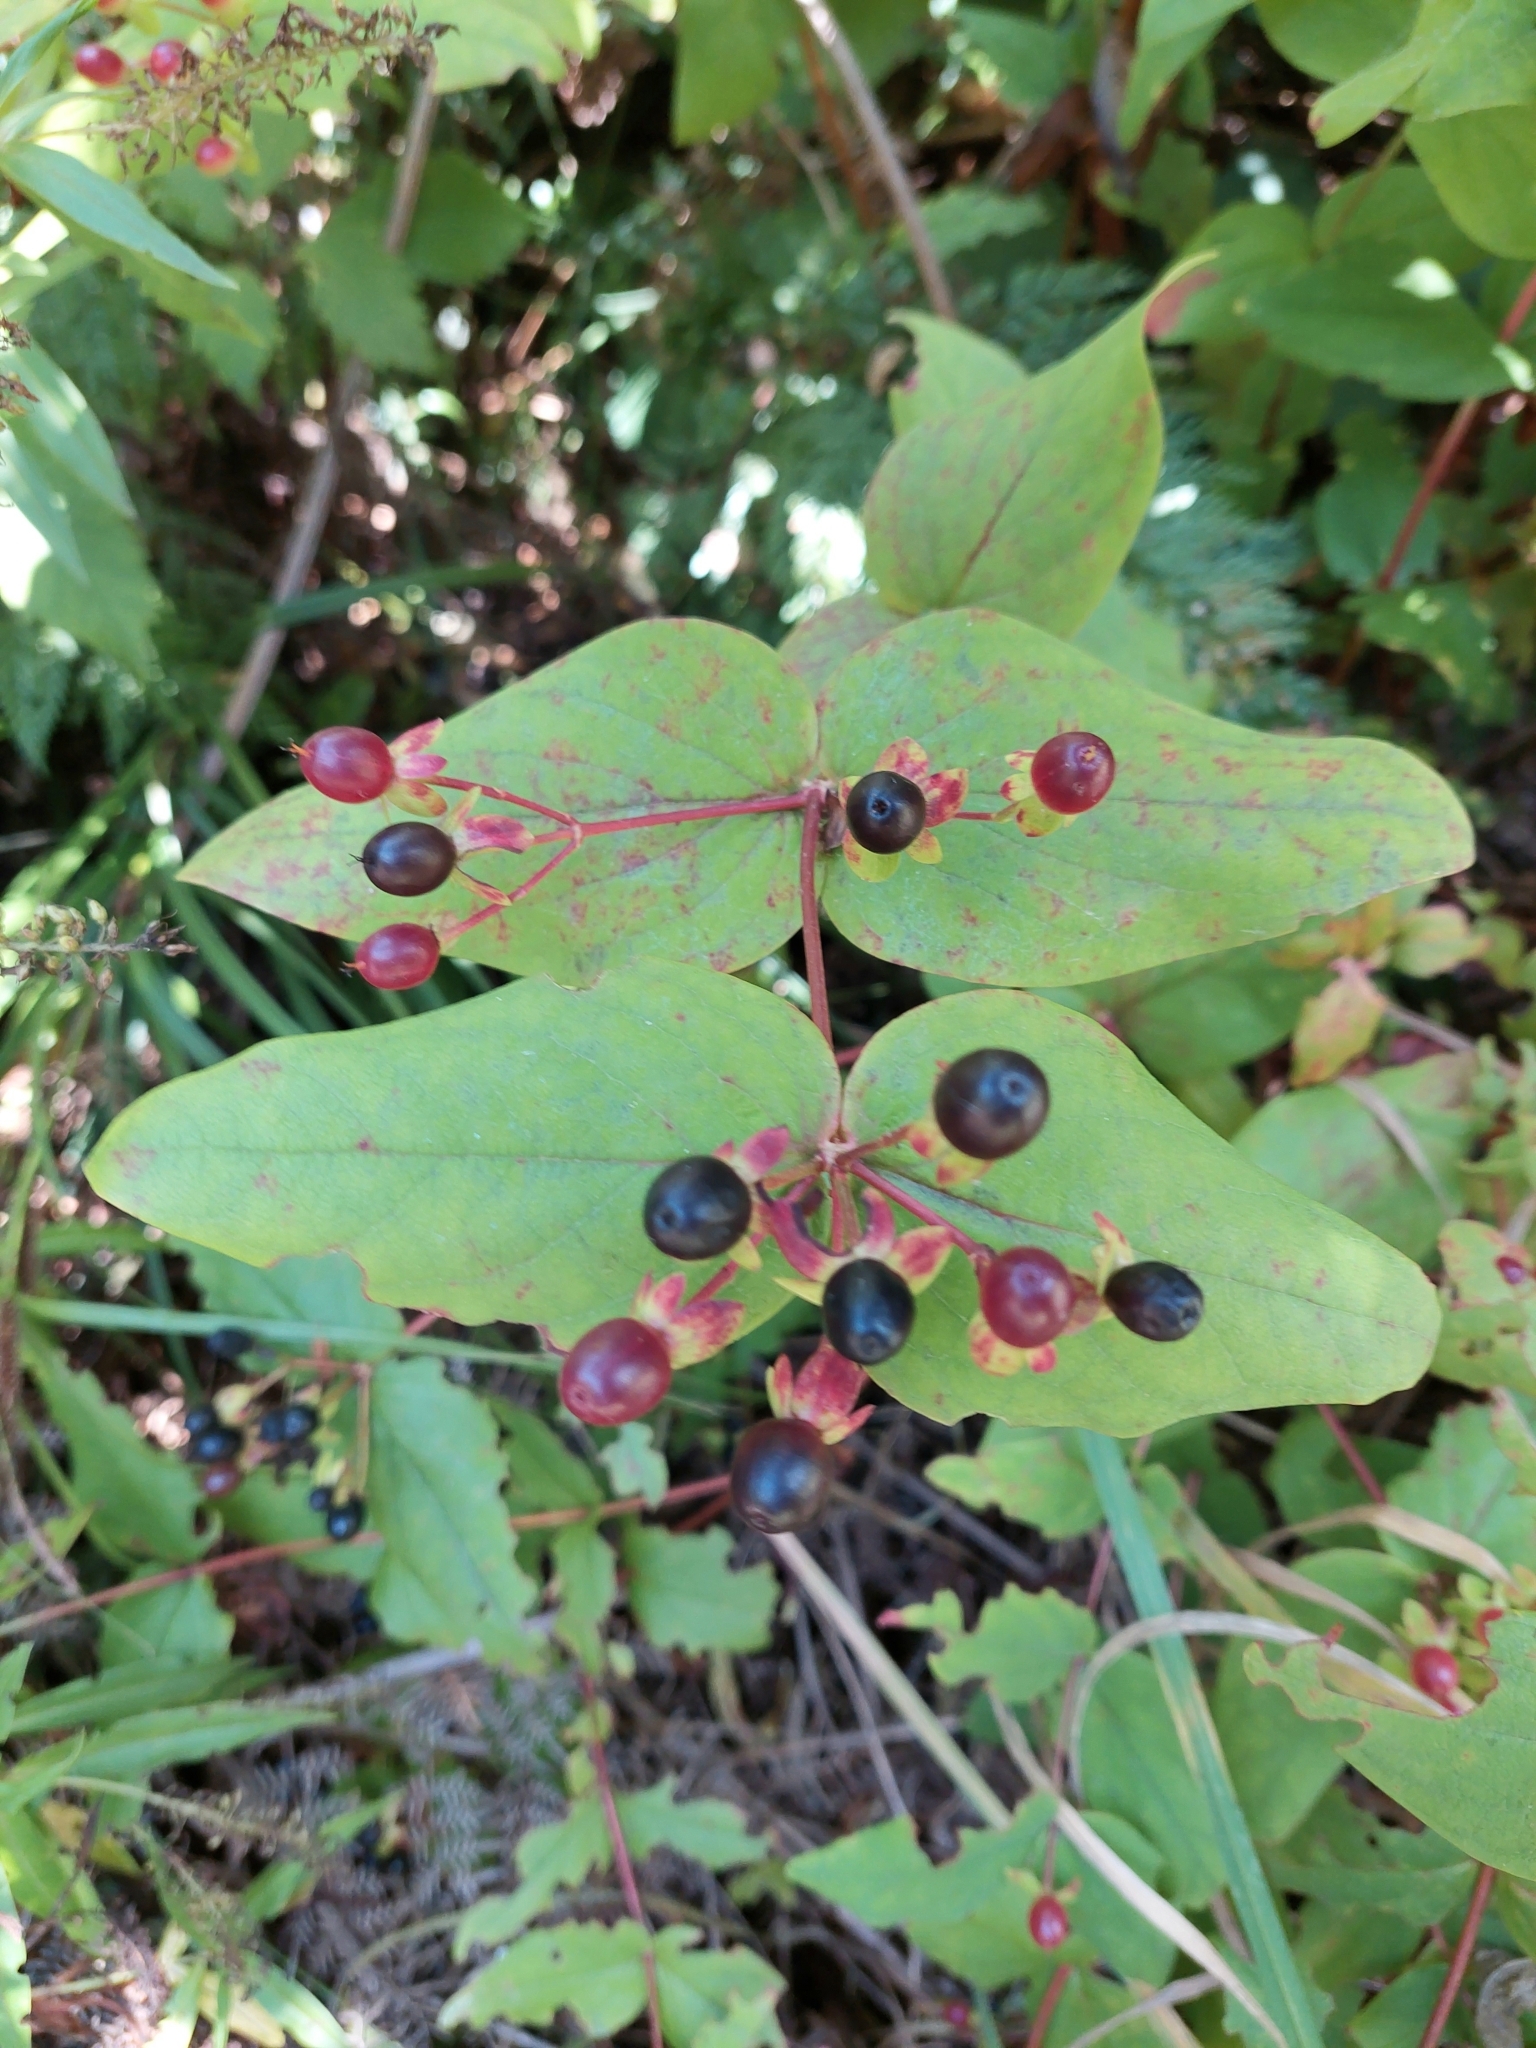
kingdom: Plantae
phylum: Tracheophyta
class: Magnoliopsida
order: Malpighiales
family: Hypericaceae
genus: Hypericum
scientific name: Hypericum androsaemum
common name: Sweet-amber
